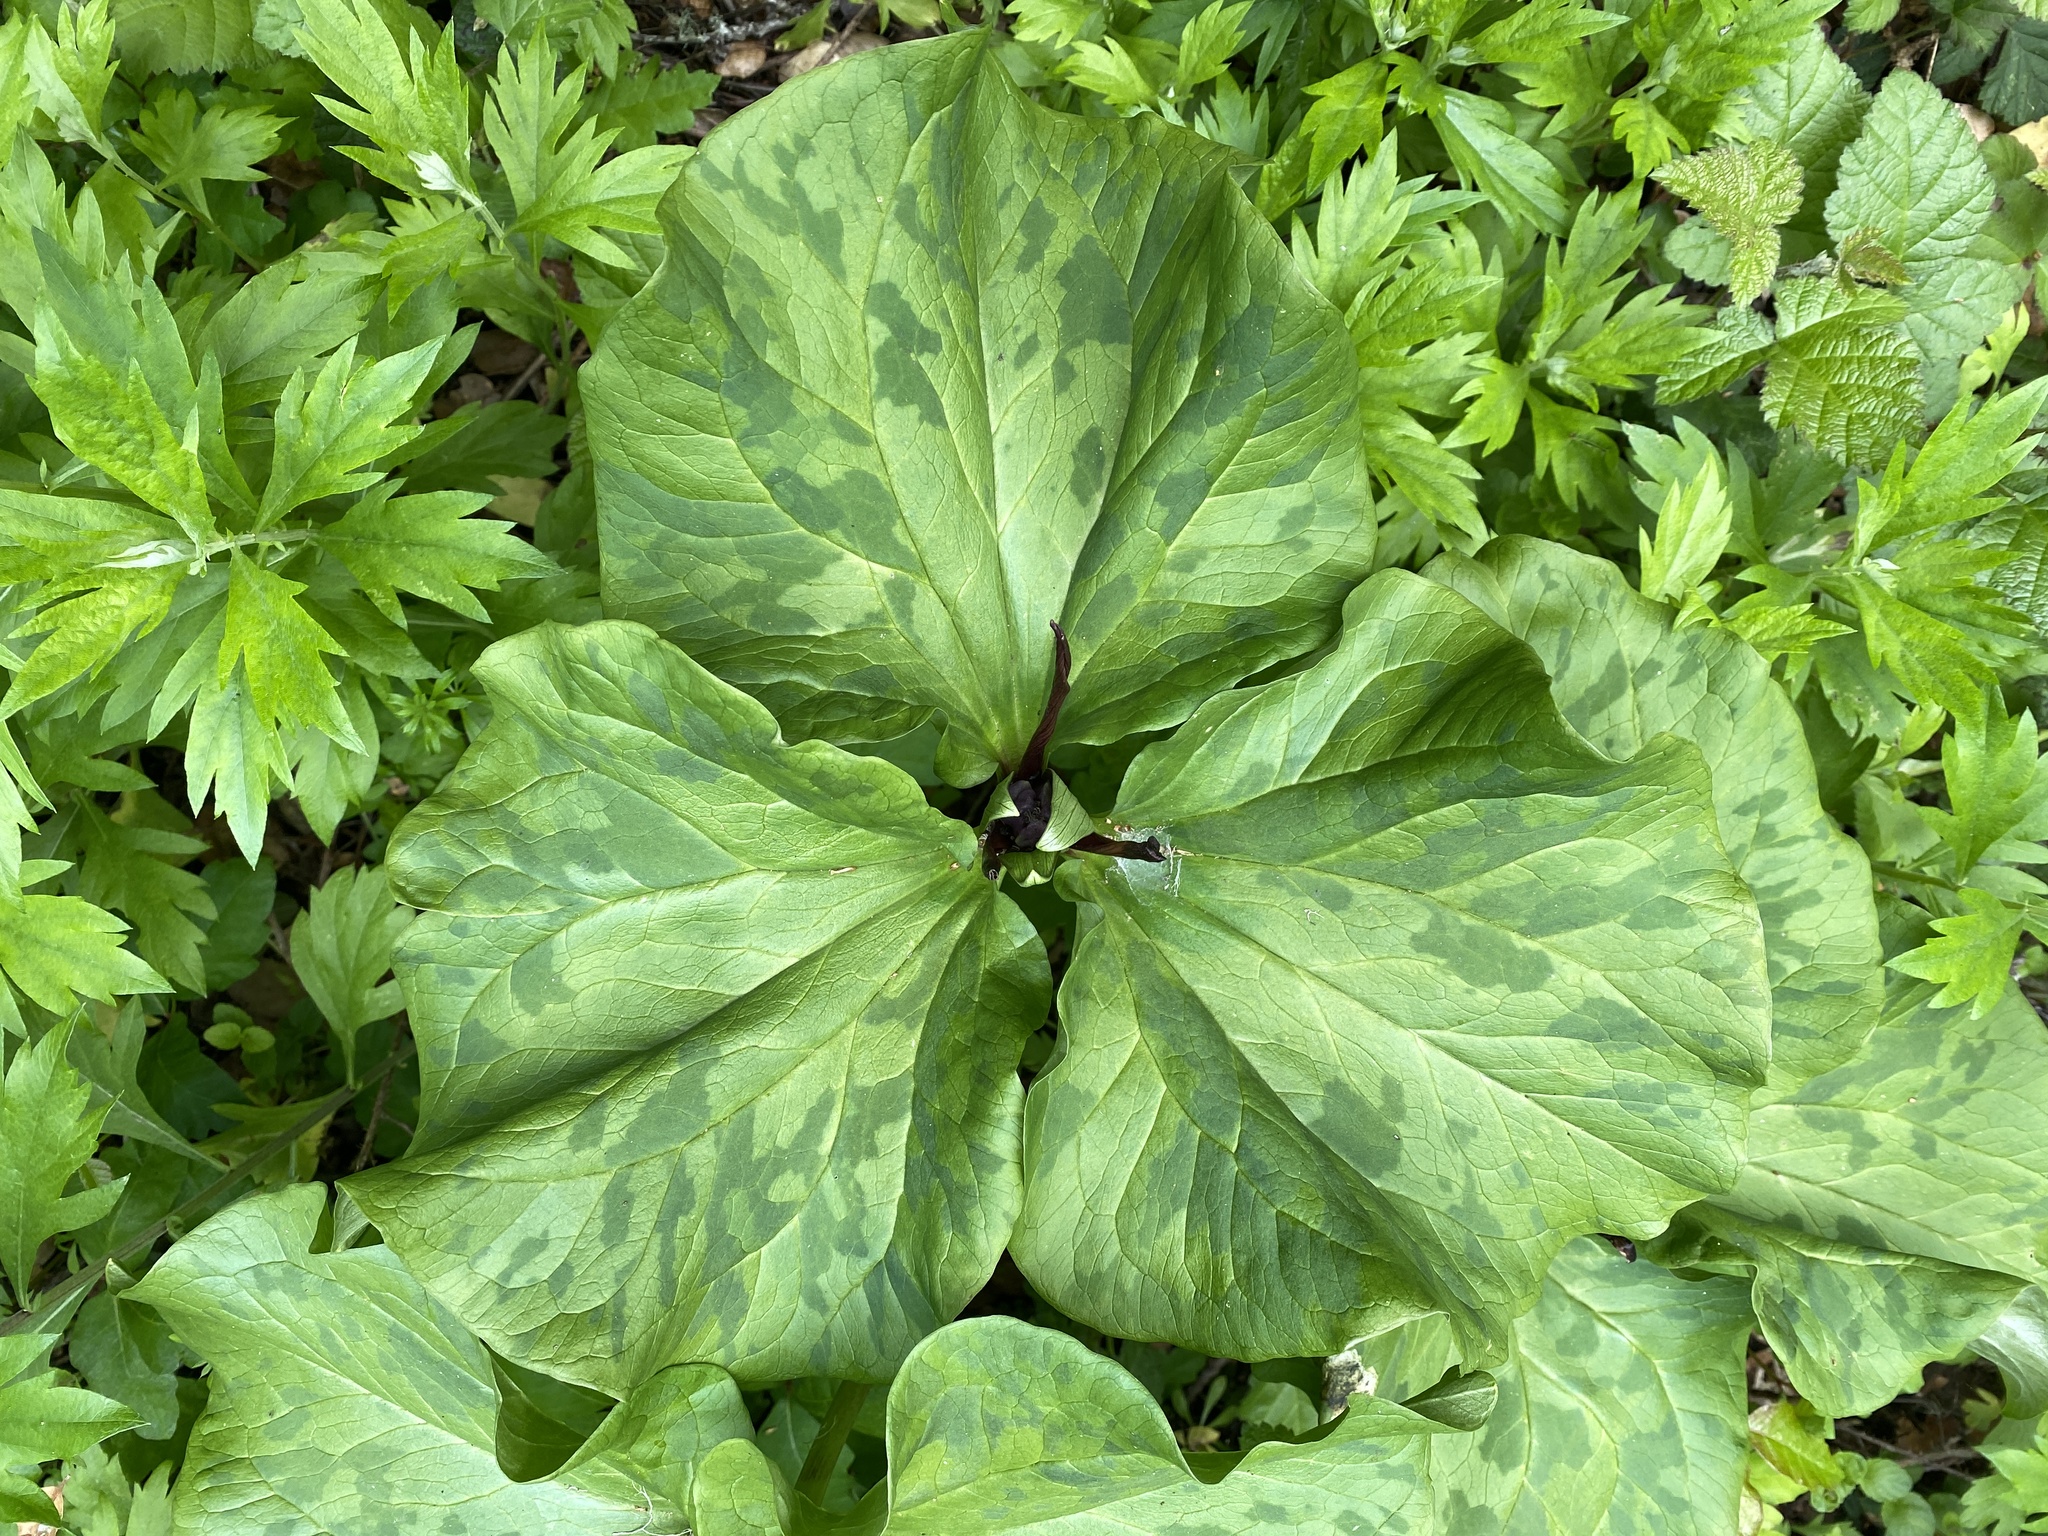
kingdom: Plantae
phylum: Tracheophyta
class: Liliopsida
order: Liliales
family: Melanthiaceae
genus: Trillium
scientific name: Trillium angustipetalum
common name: Narrow-petaled trillium
